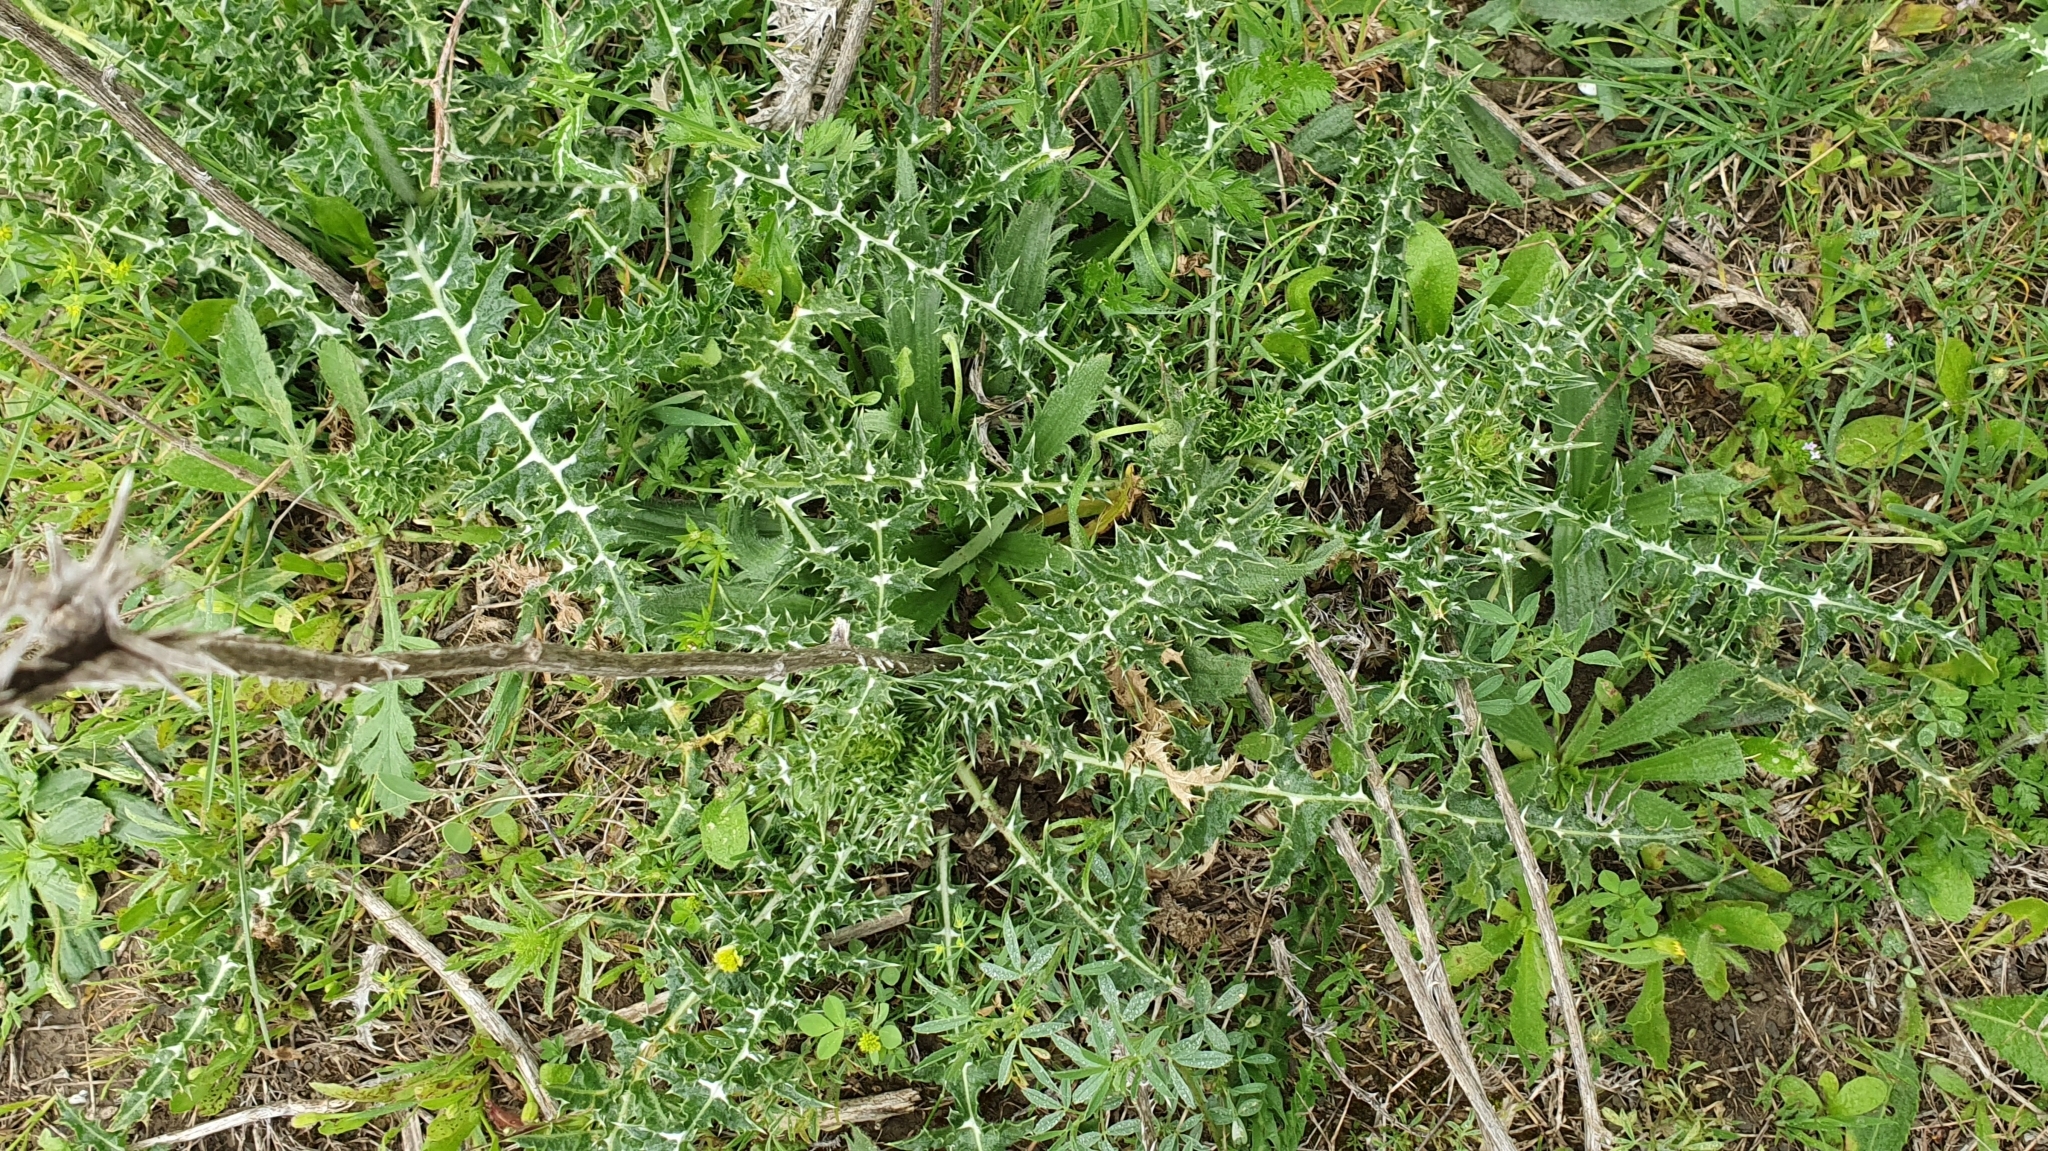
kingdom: Plantae
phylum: Tracheophyta
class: Magnoliopsida
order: Asterales
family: Asteraceae
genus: Scolymus
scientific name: Scolymus grandiflorus
